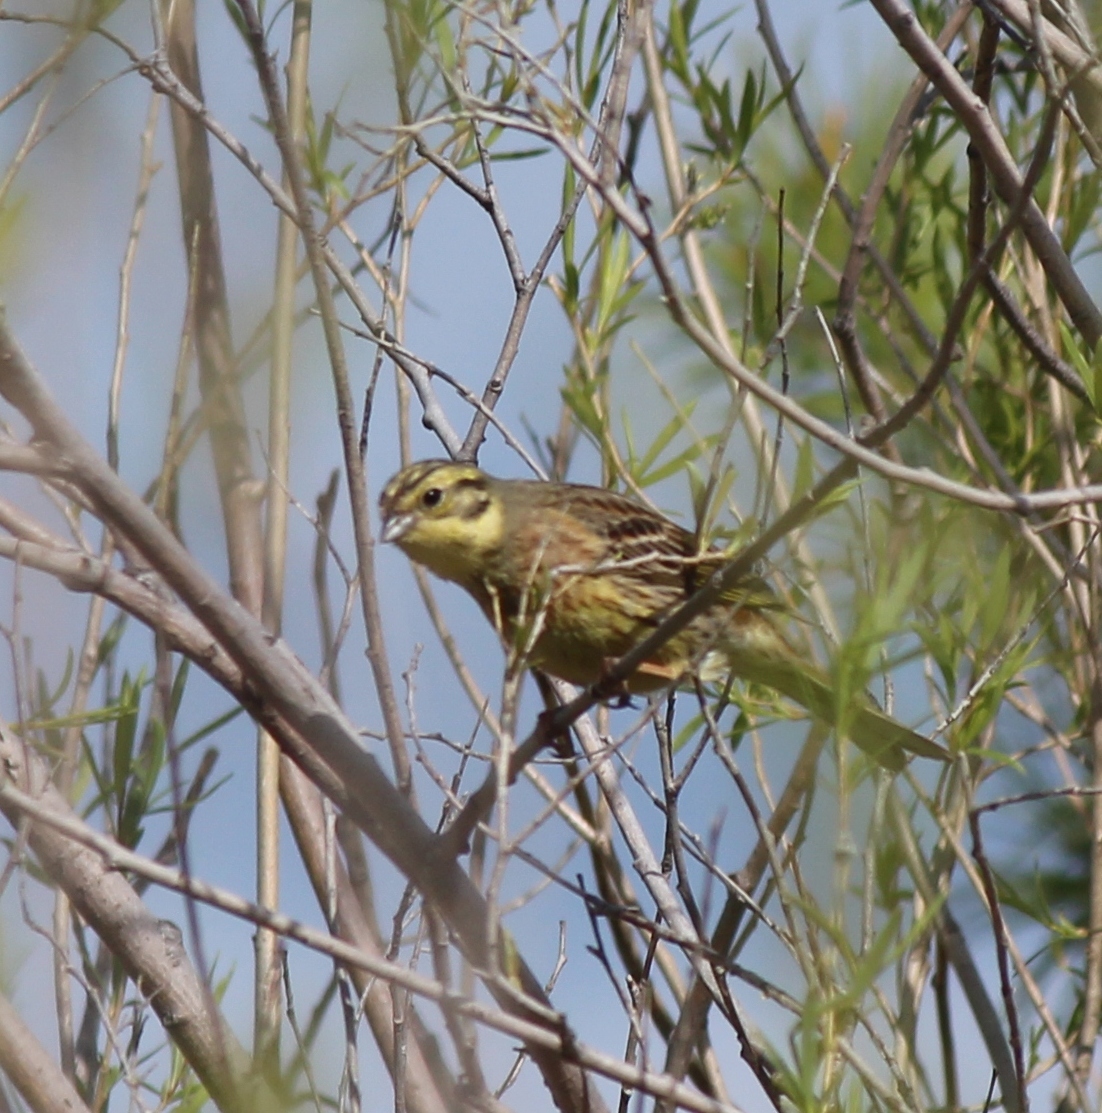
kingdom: Animalia
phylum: Chordata
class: Aves
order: Passeriformes
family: Emberizidae
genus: Emberiza
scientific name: Emberiza citrinella
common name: Yellowhammer
